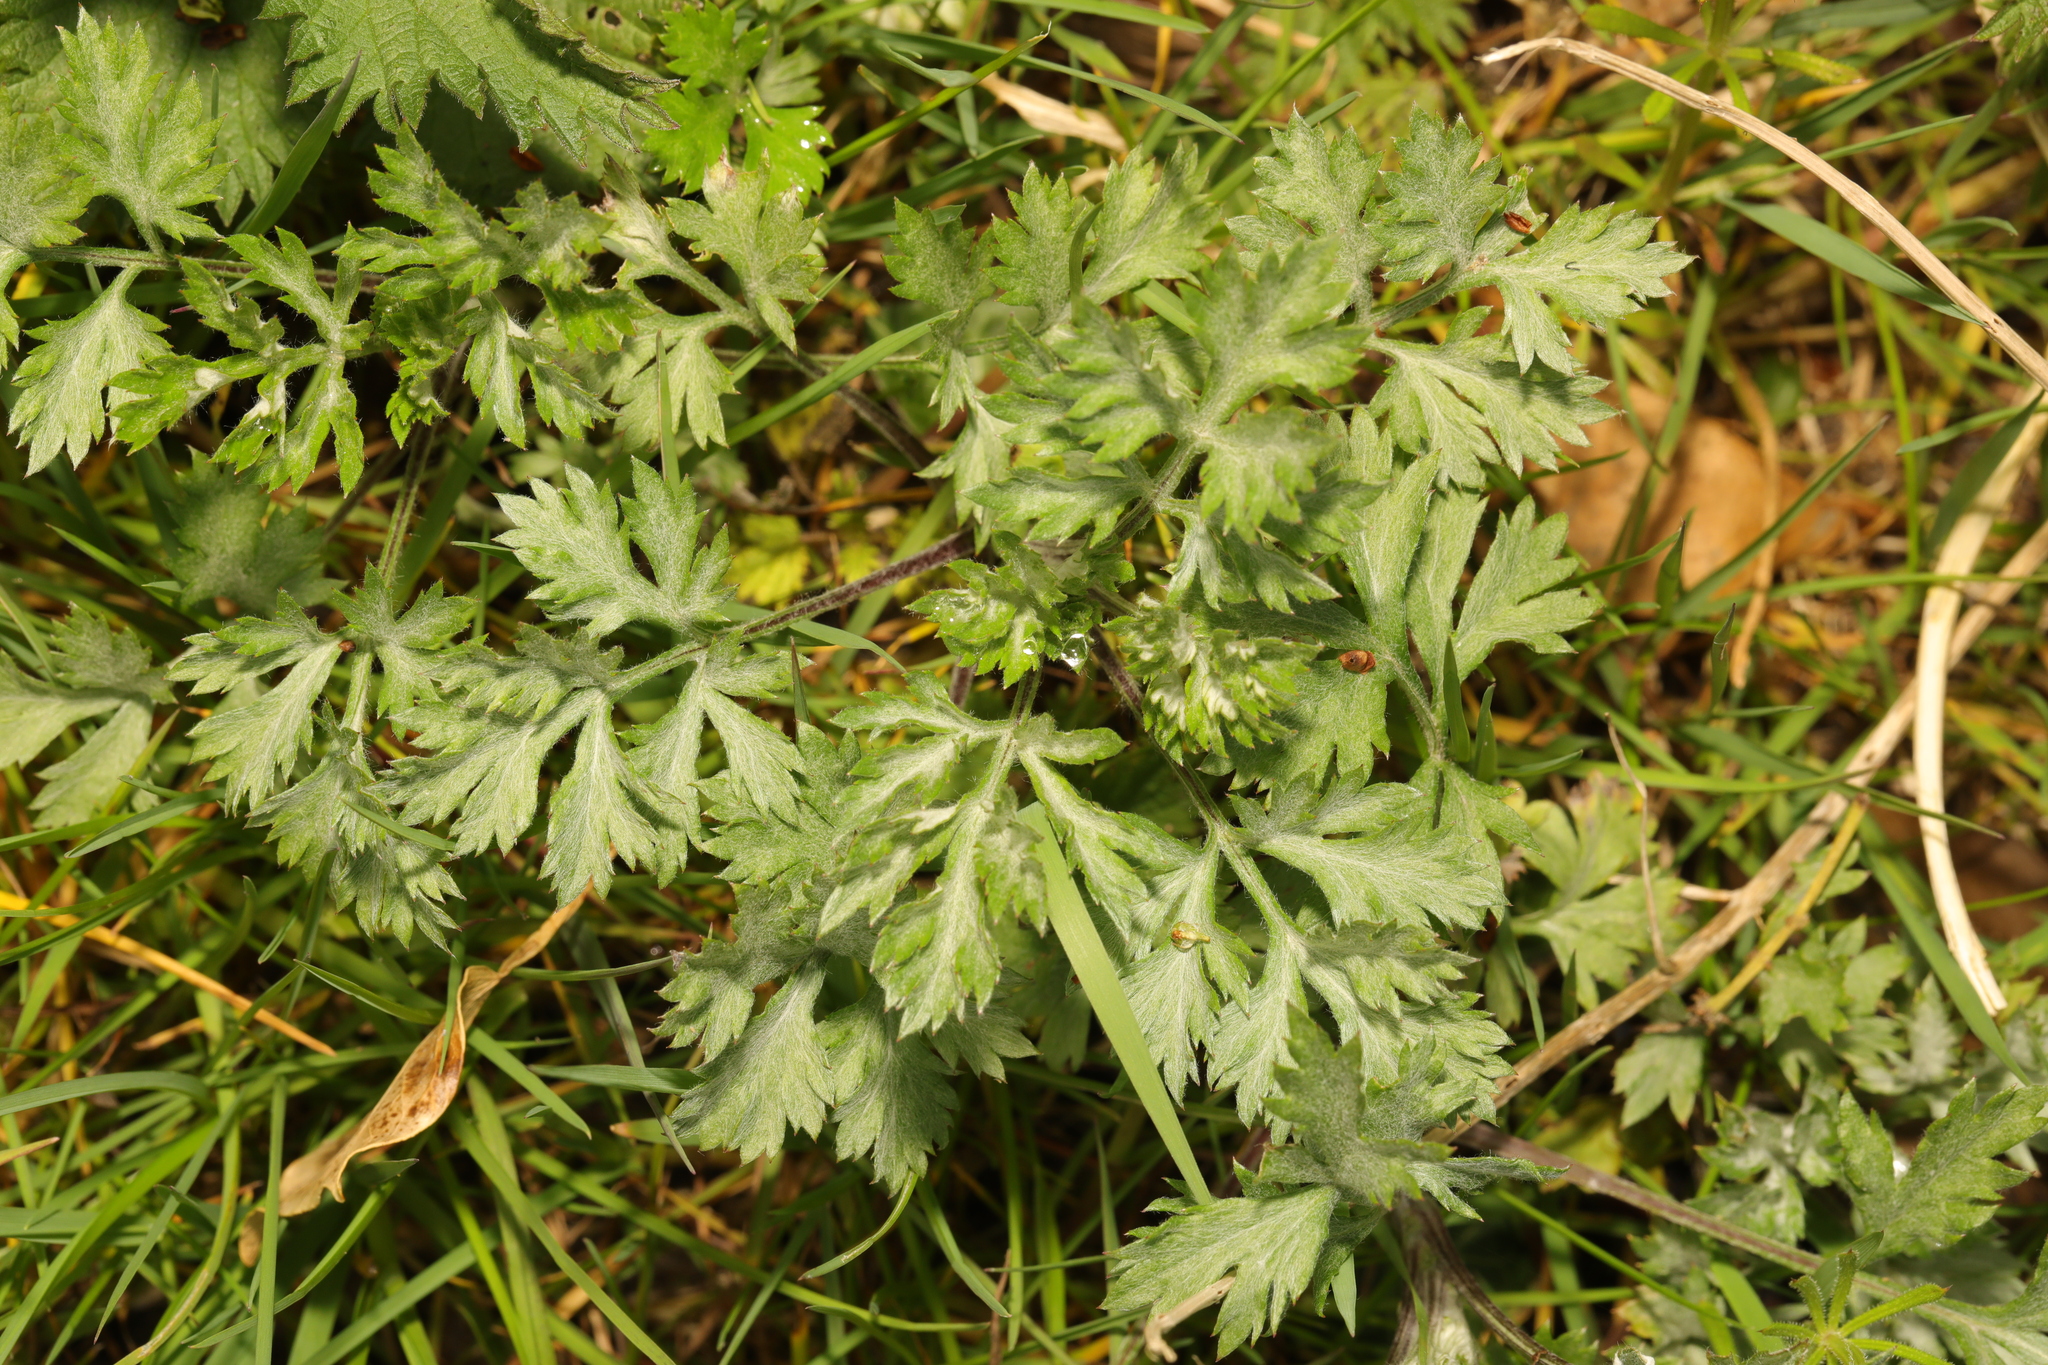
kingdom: Plantae
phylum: Tracheophyta
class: Magnoliopsida
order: Asterales
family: Asteraceae
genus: Artemisia
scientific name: Artemisia vulgaris
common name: Mugwort
